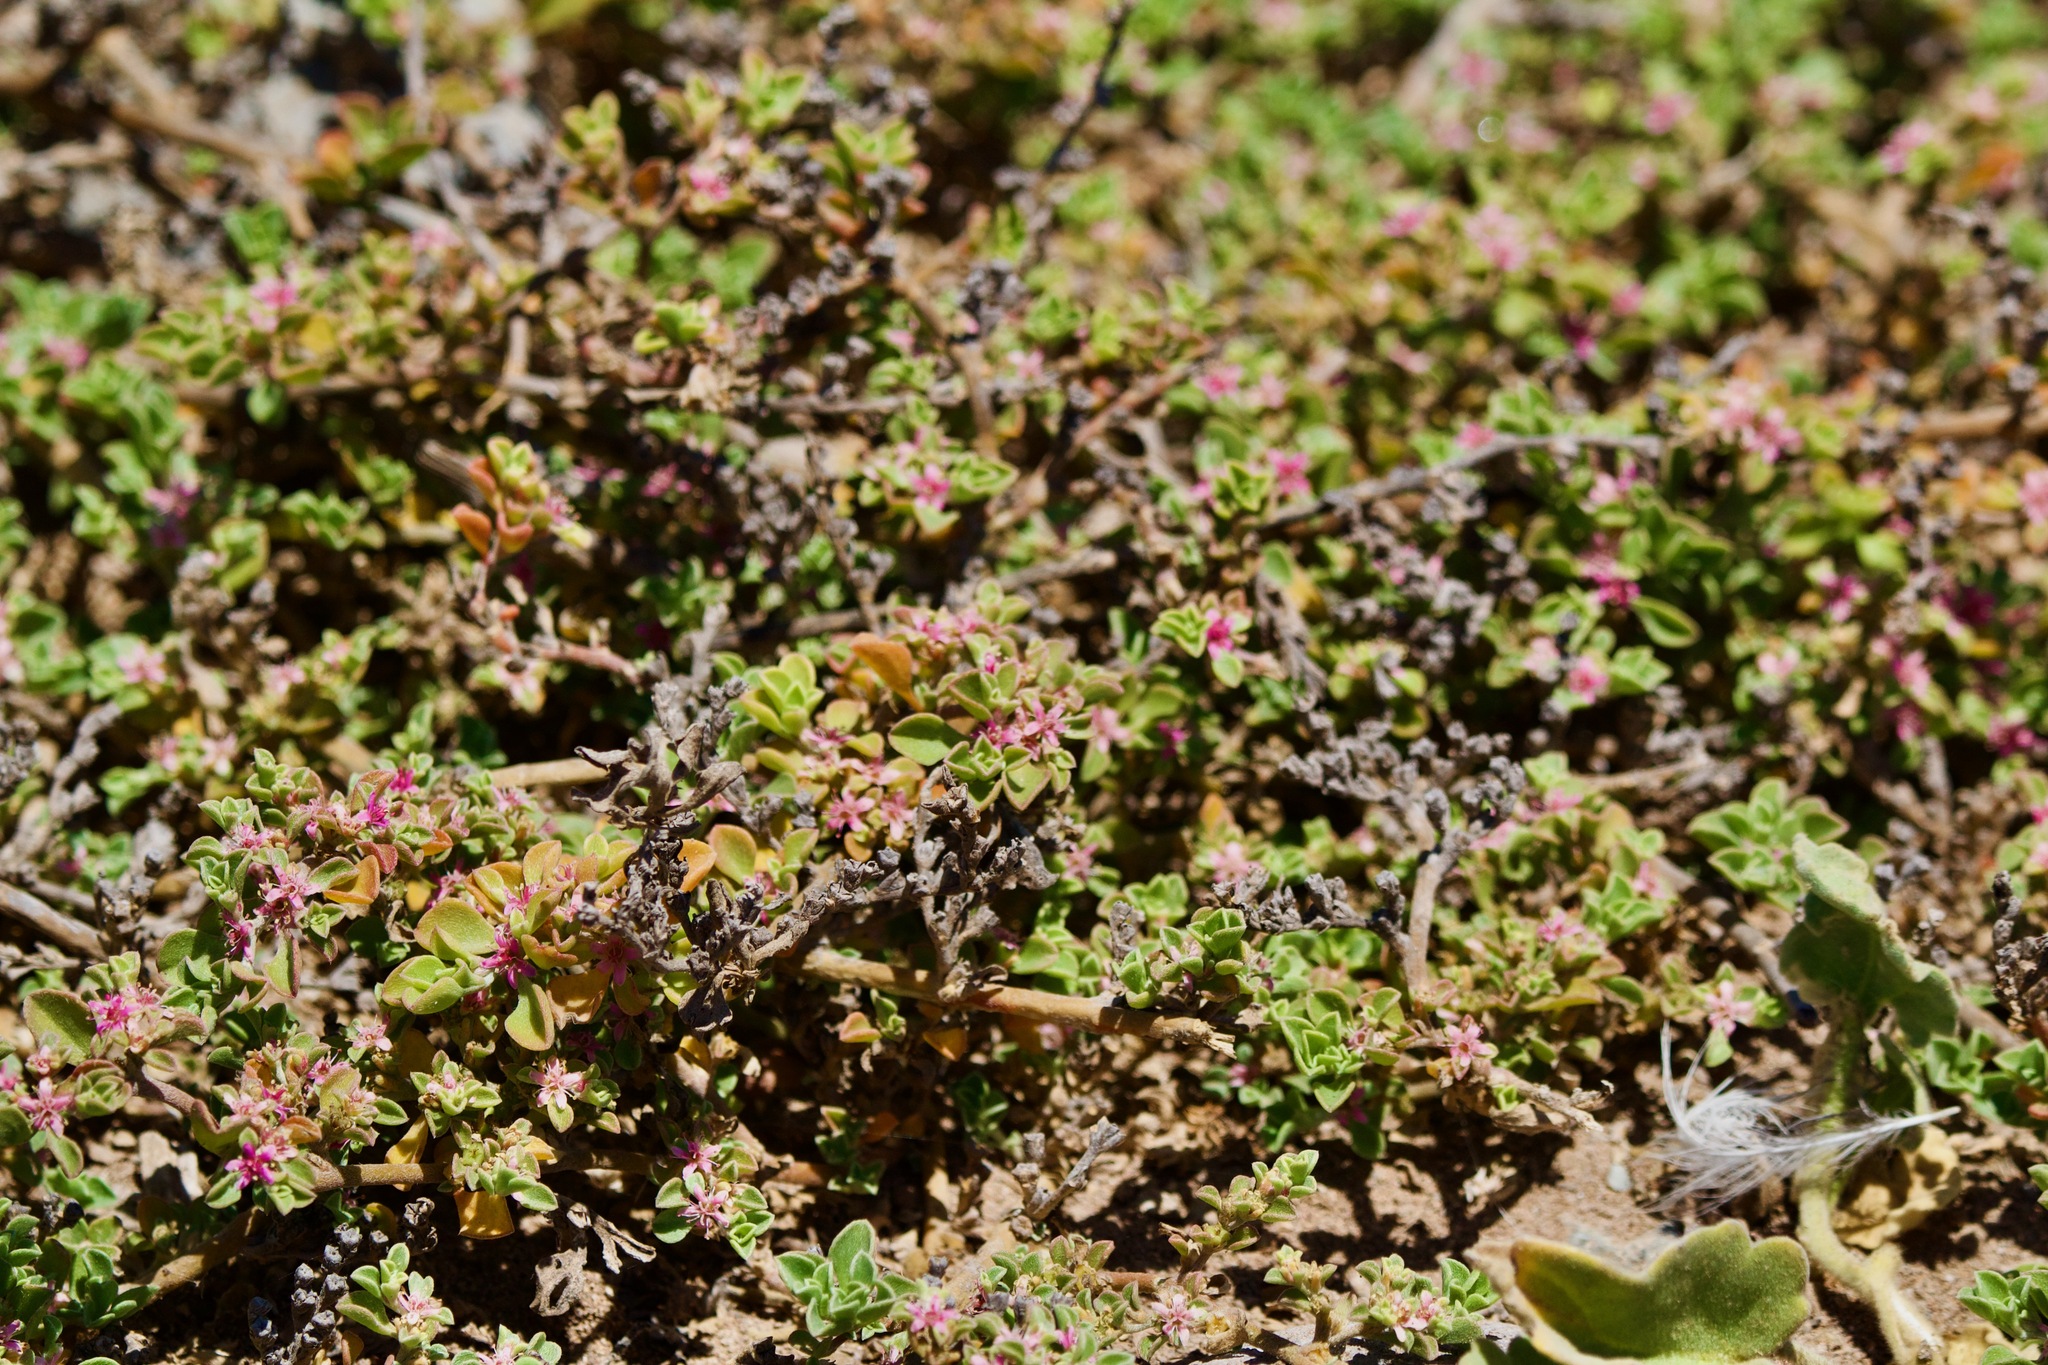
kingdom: Plantae
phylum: Tracheophyta
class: Magnoliopsida
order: Caryophyllales
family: Aizoaceae
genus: Aizoon
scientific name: Aizoon pubescens
